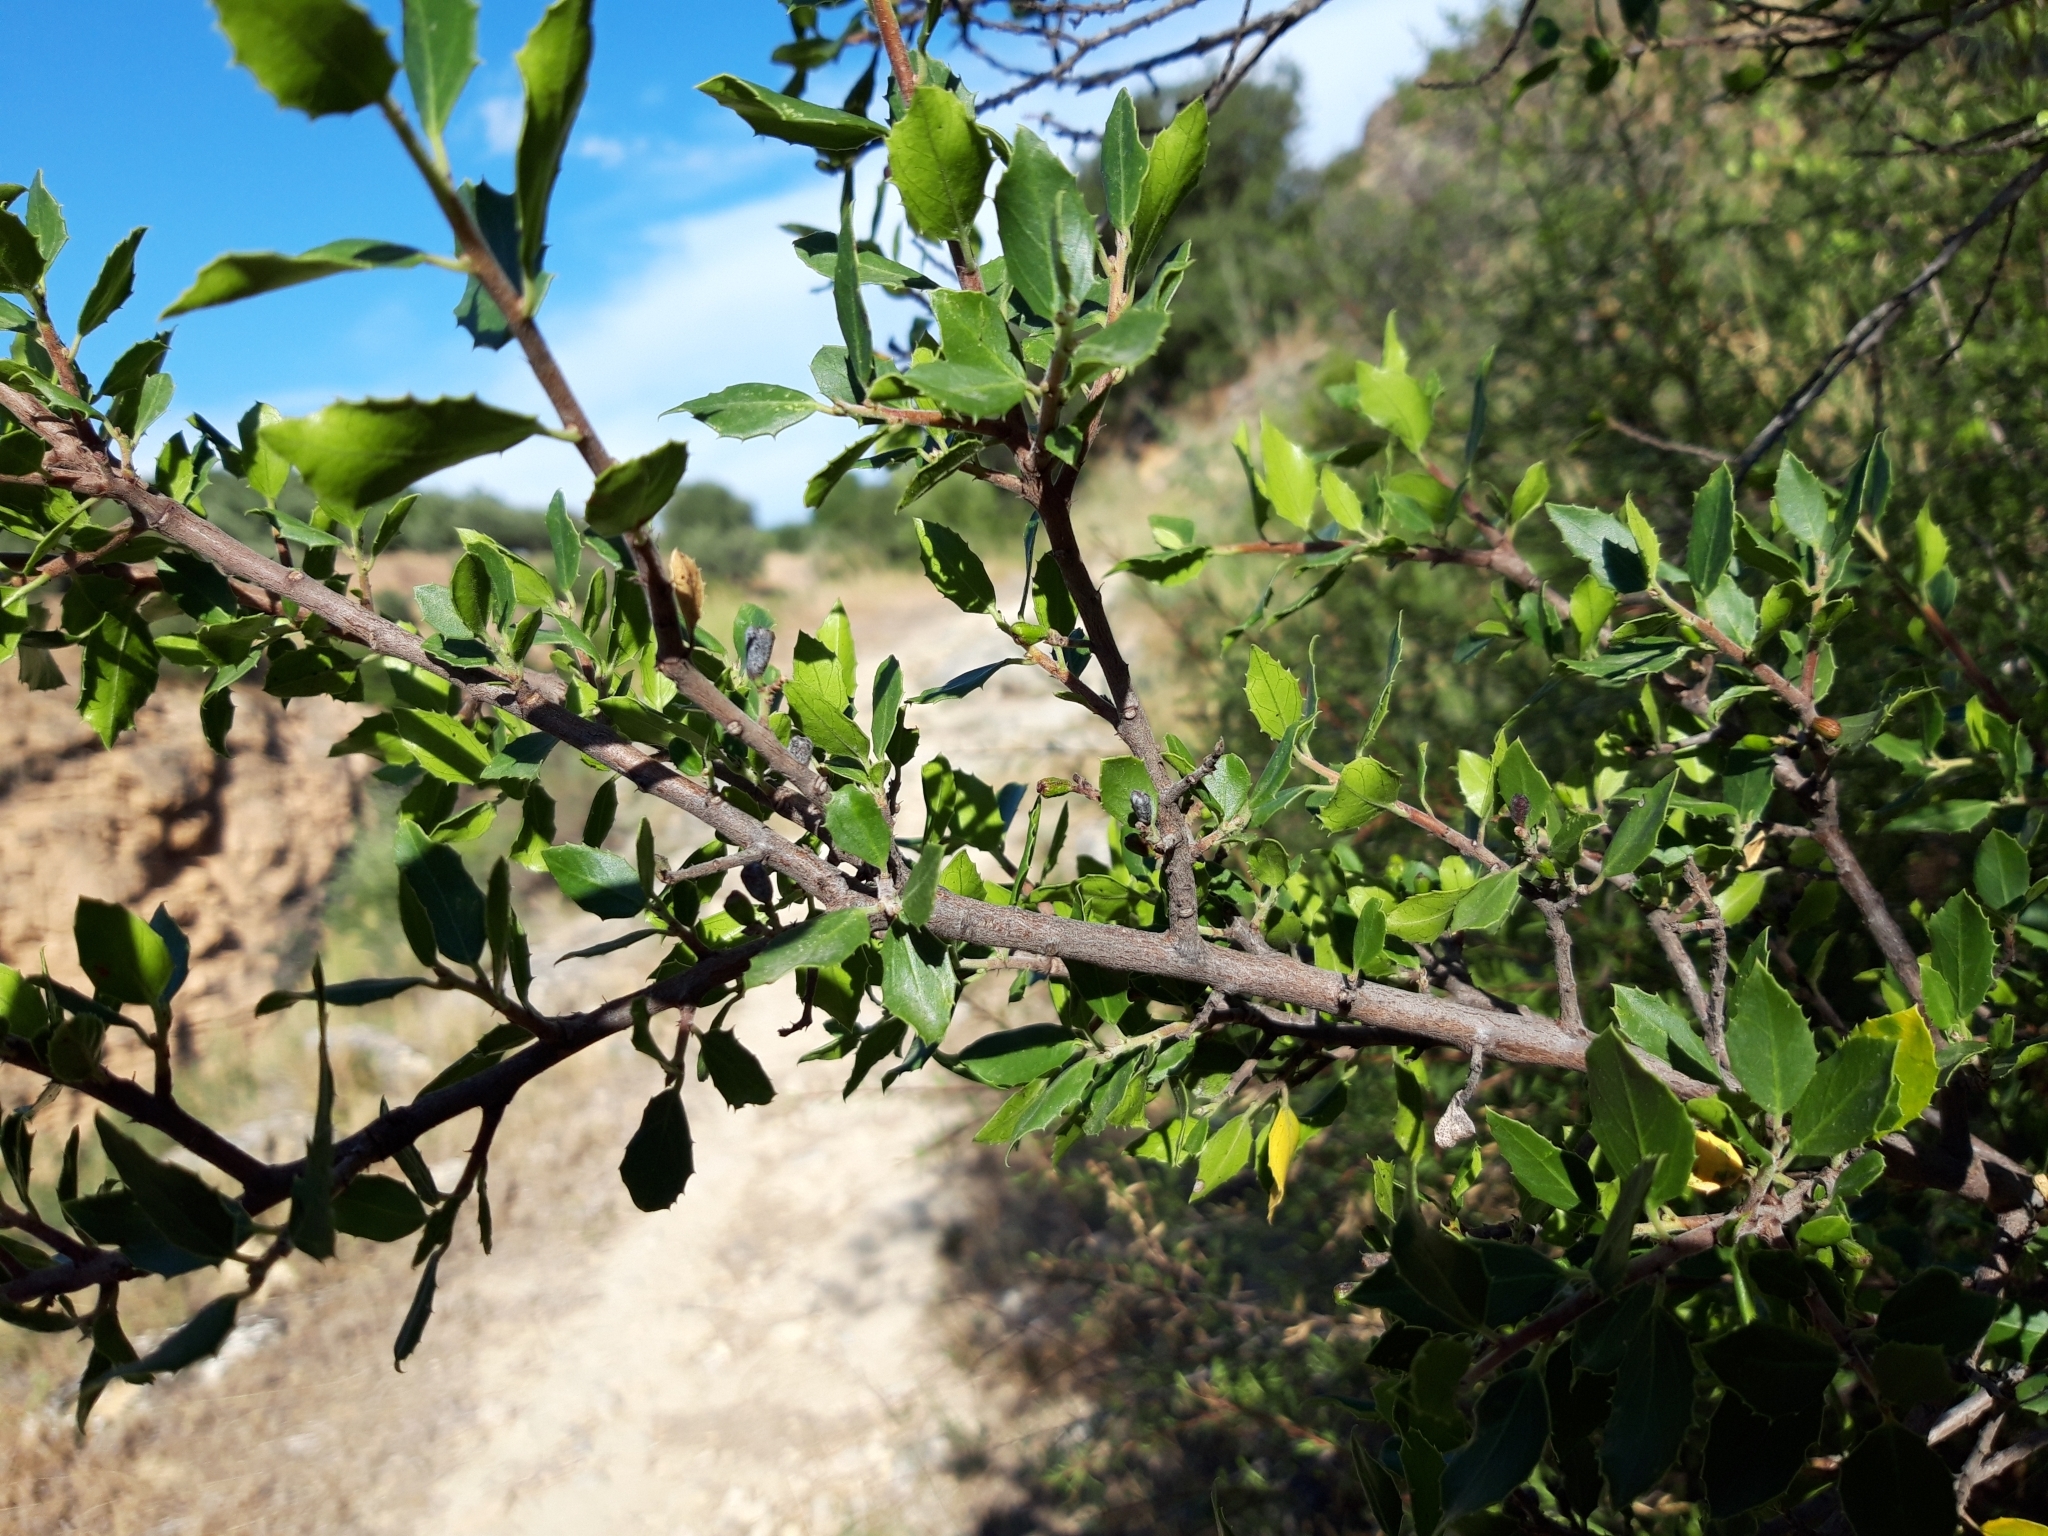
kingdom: Plantae
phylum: Tracheophyta
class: Magnoliopsida
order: Rosales
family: Rhamnaceae
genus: Rhamnus
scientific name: Rhamnus alaternus
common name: Mediterranean buckthorn
